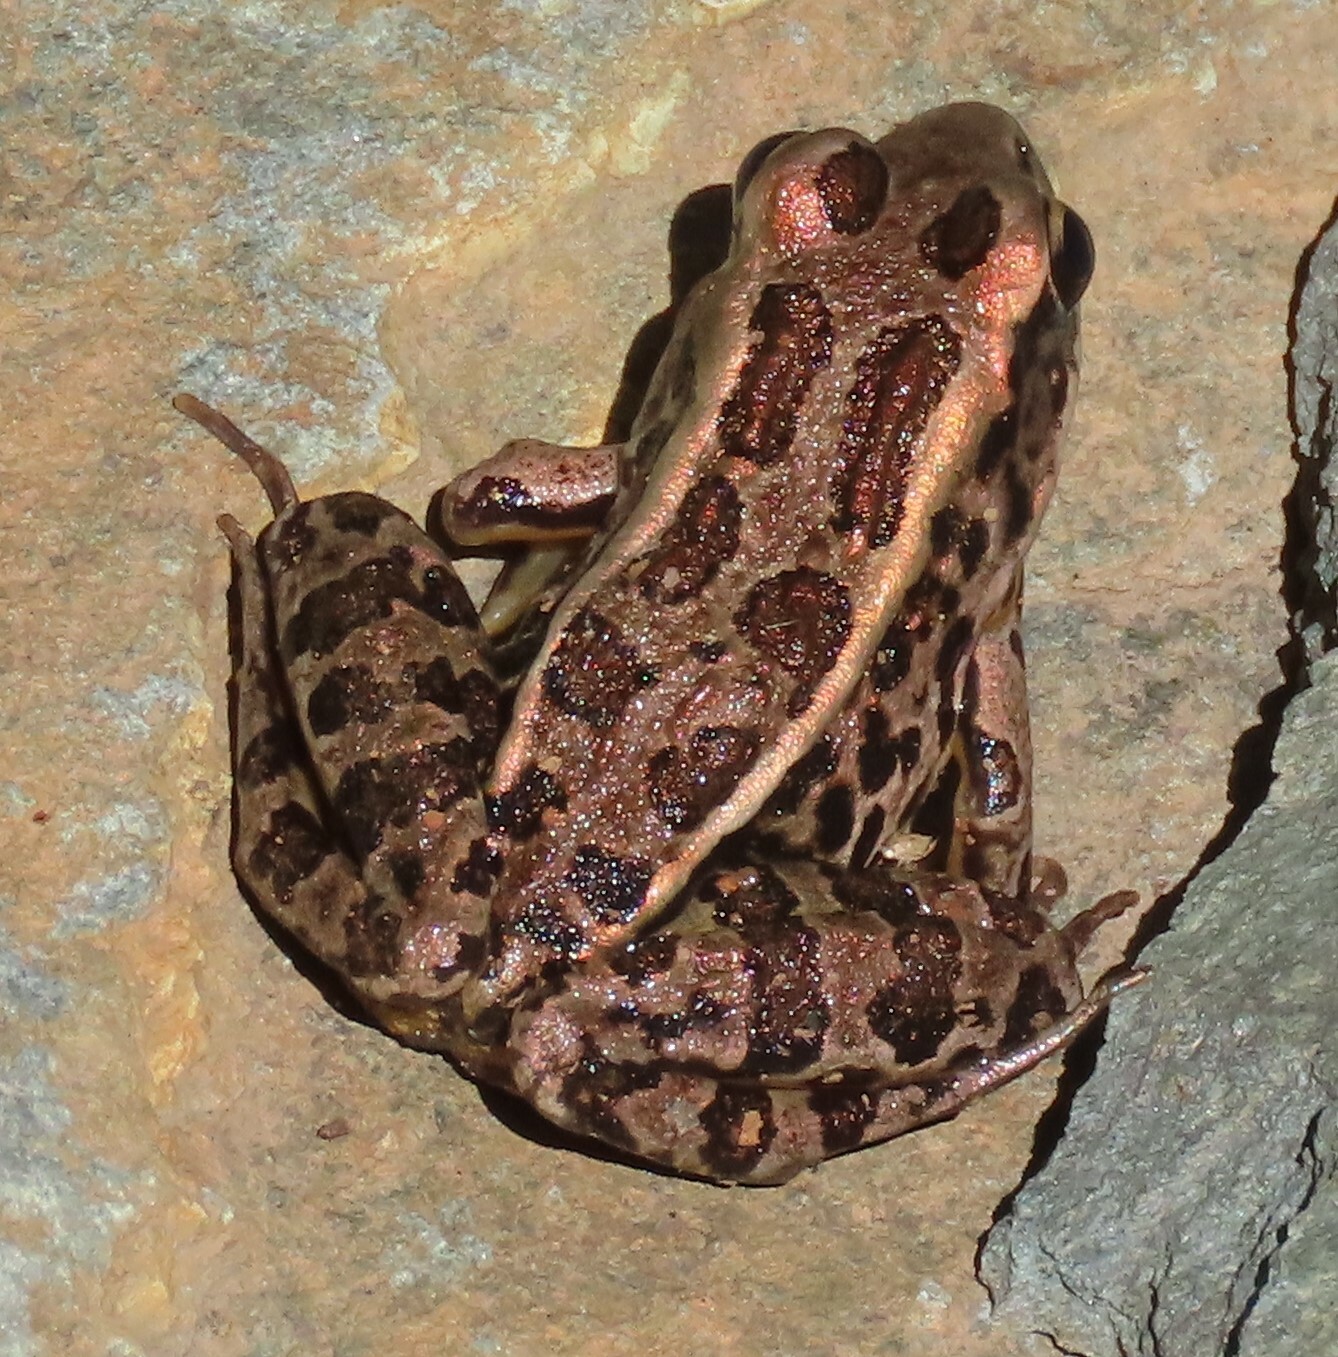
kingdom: Animalia
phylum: Chordata
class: Amphibia
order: Anura
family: Ranidae
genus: Lithobates
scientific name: Lithobates palustris
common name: Pickerel frog
